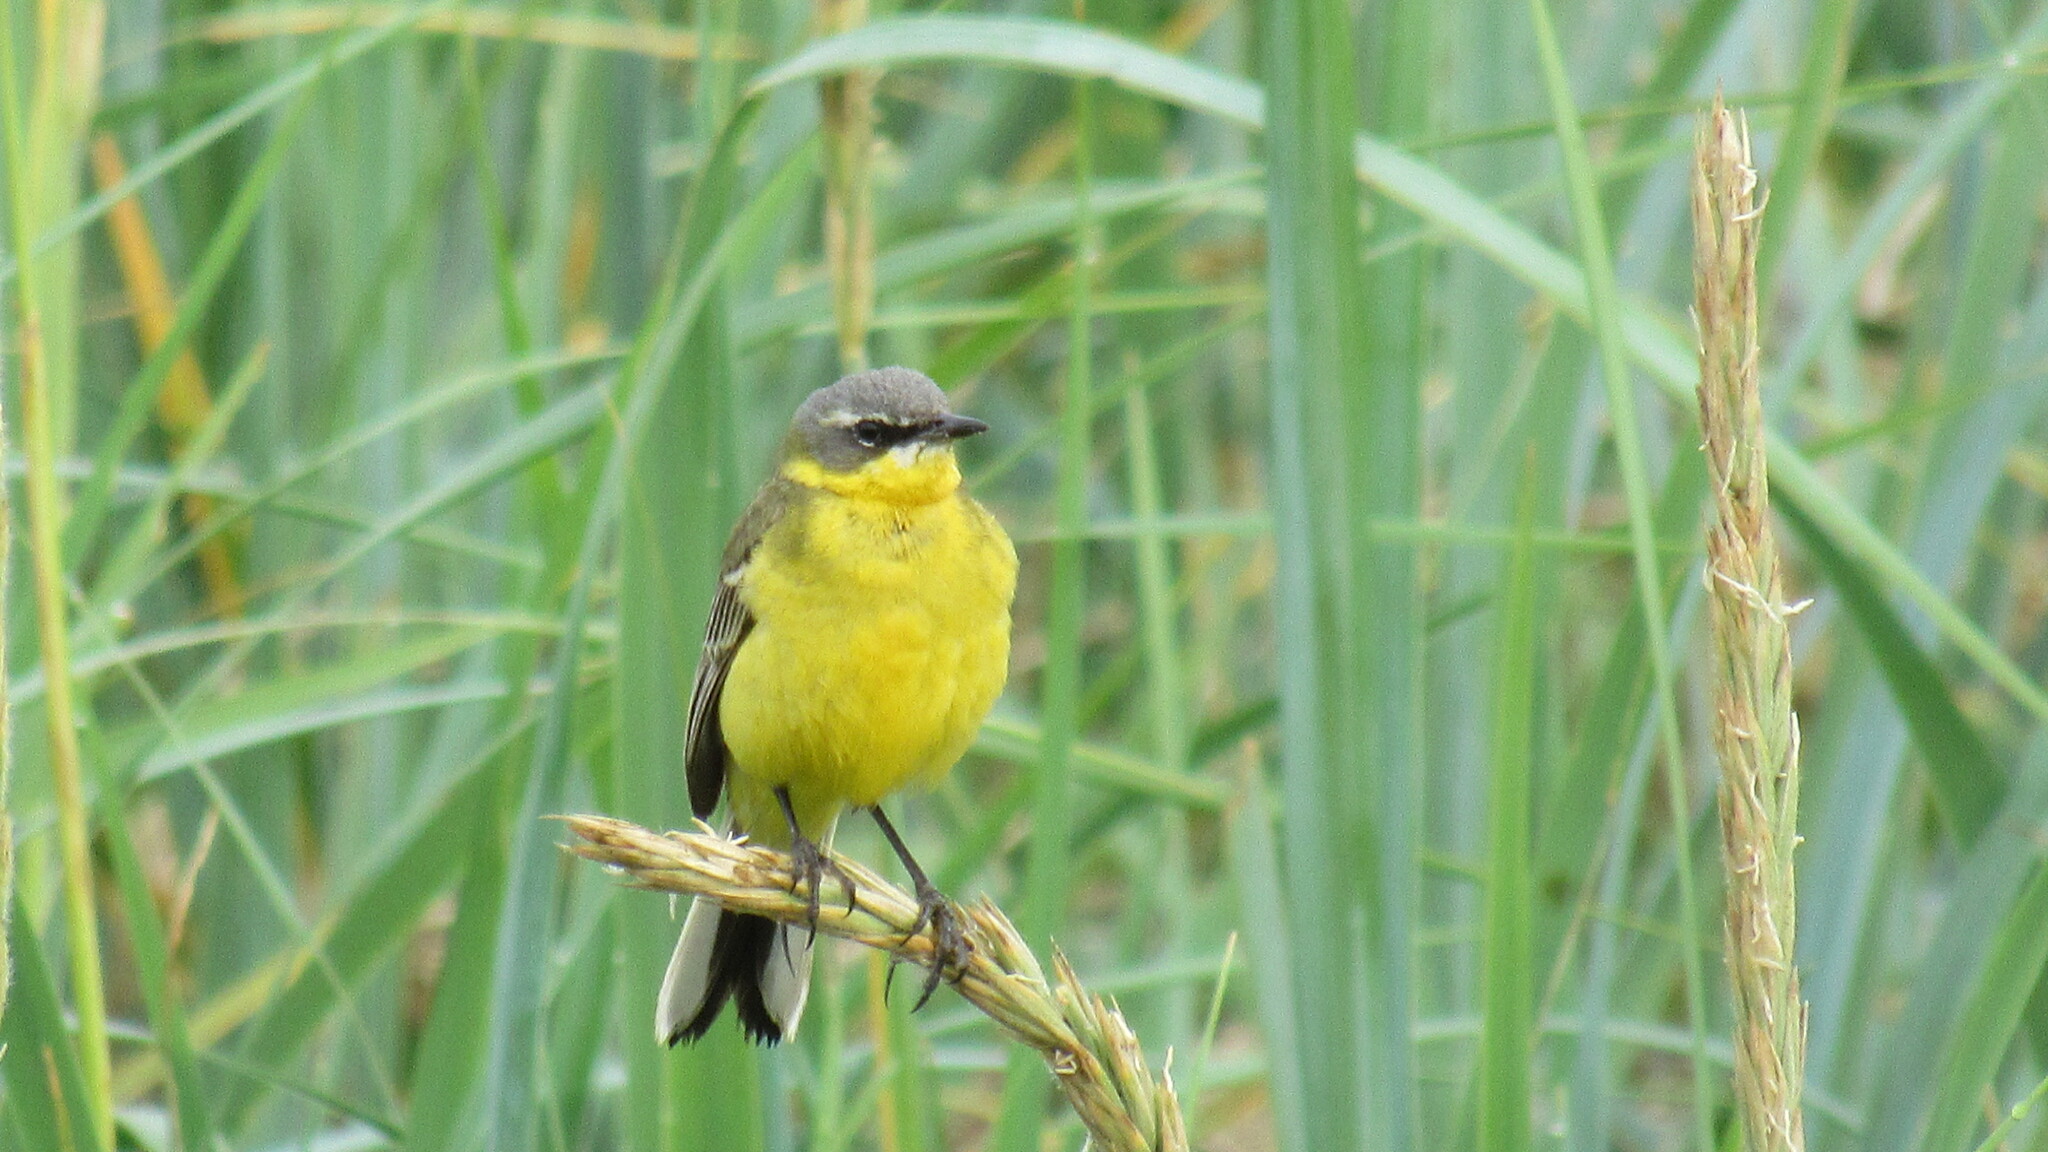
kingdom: Animalia
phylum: Chordata
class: Aves
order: Passeriformes
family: Motacillidae
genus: Motacilla
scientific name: Motacilla tschutschensis
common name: Eastern yellow wagtail
